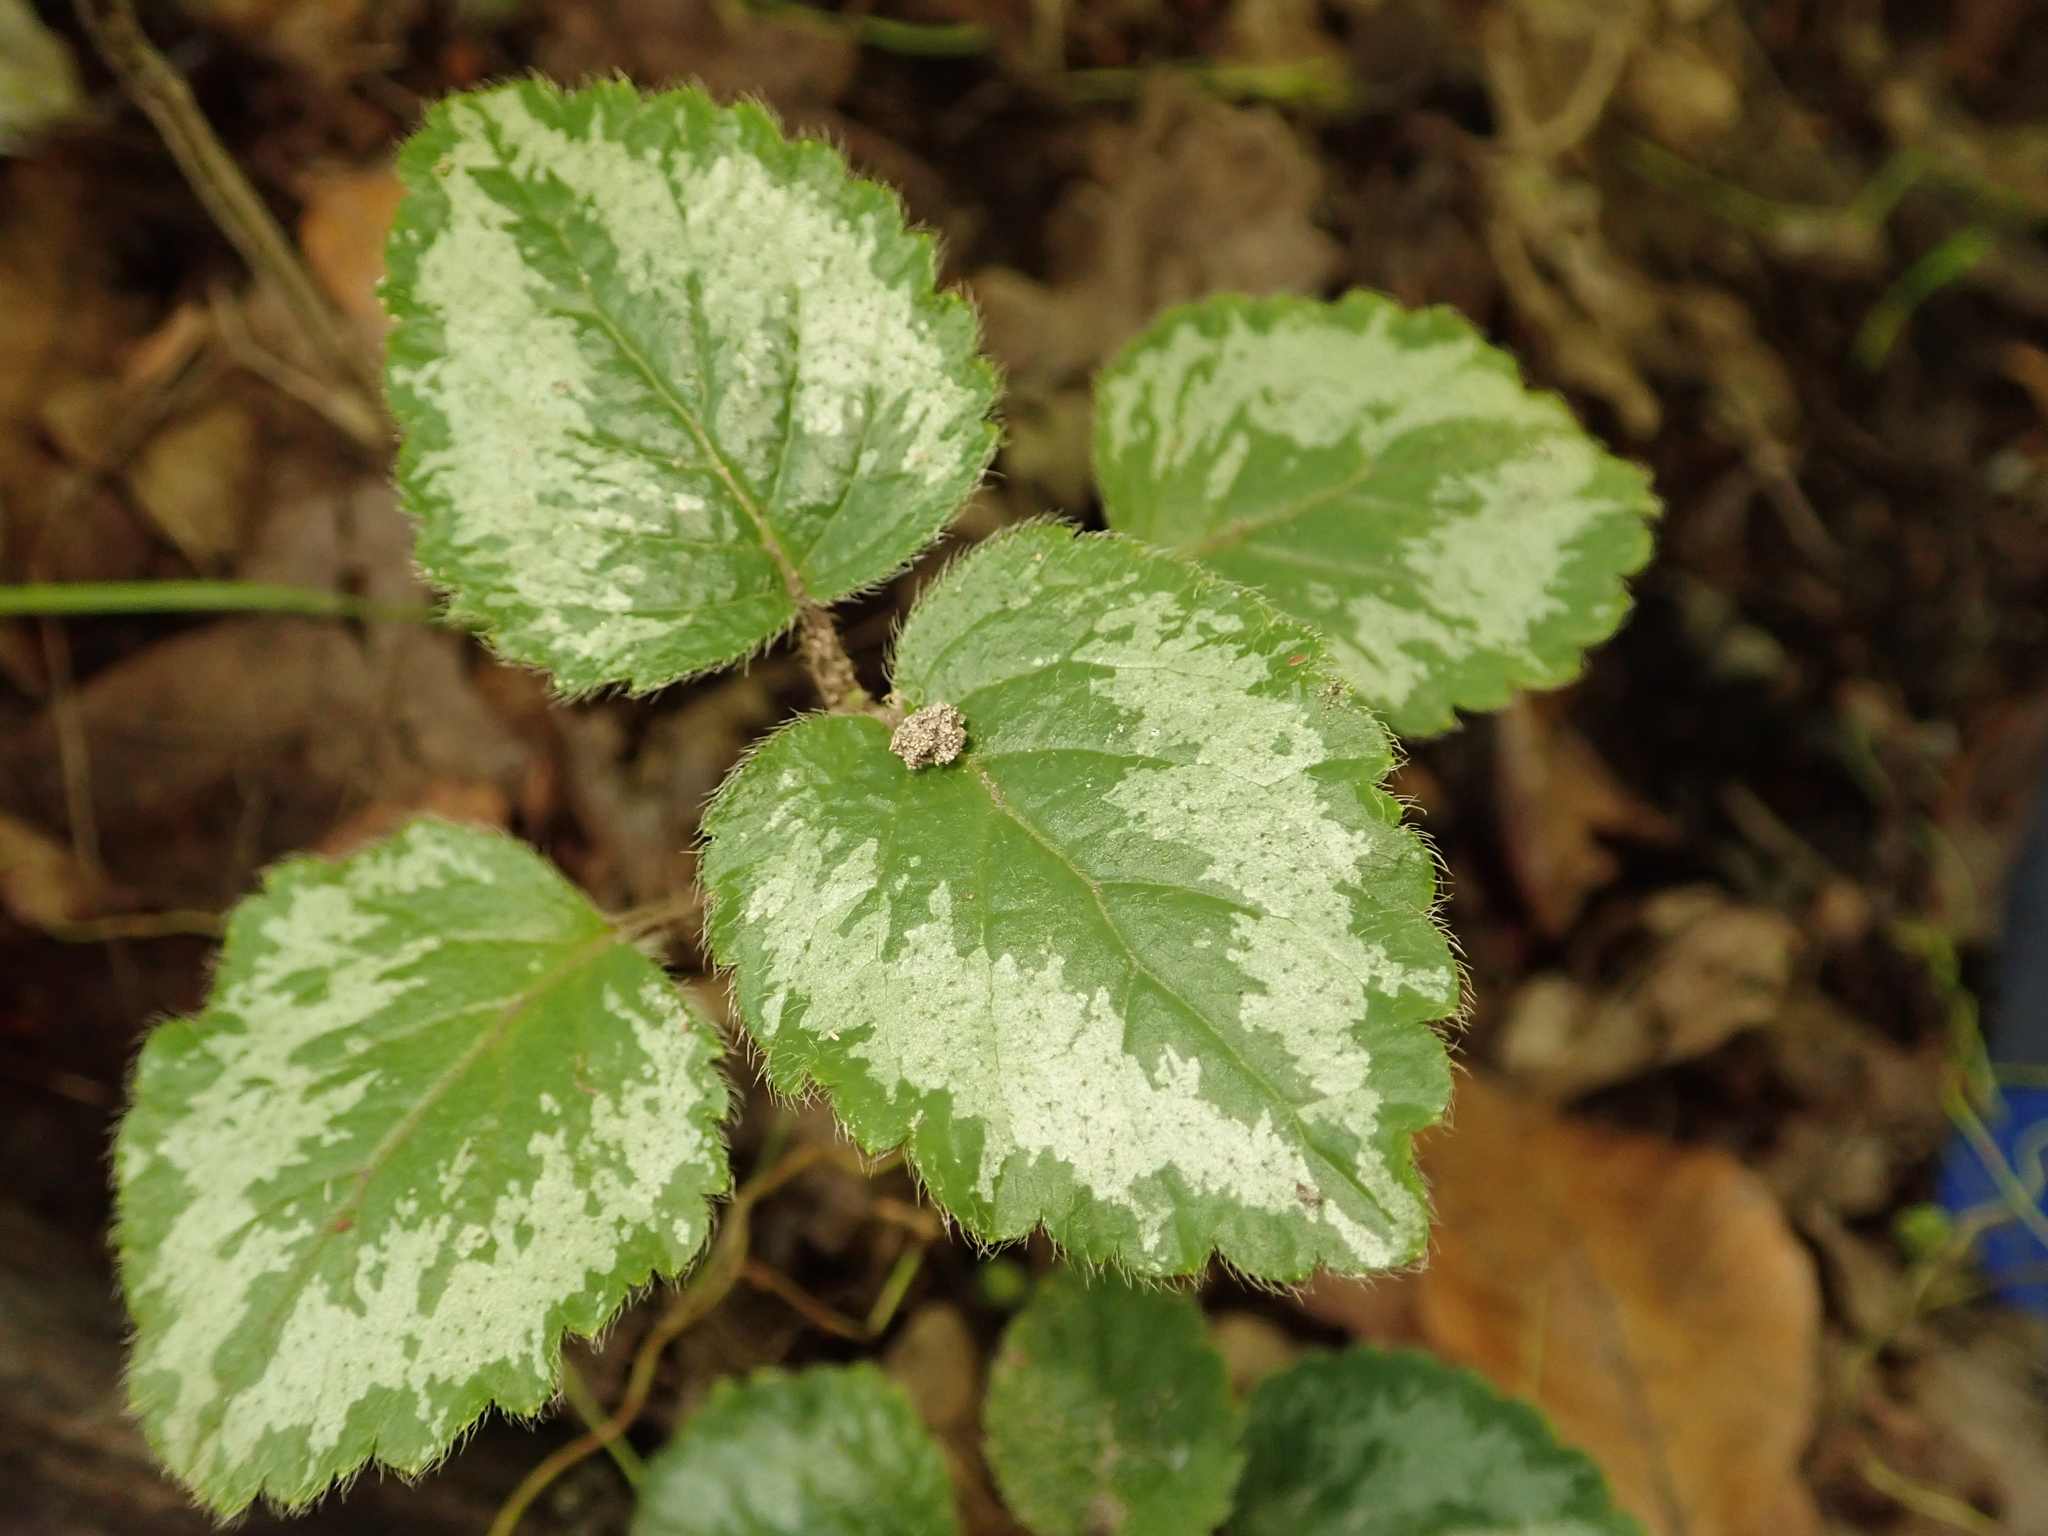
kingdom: Plantae
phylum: Tracheophyta
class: Magnoliopsida
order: Lamiales
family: Lamiaceae
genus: Lamium
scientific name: Lamium galeobdolon
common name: Yellow archangel
